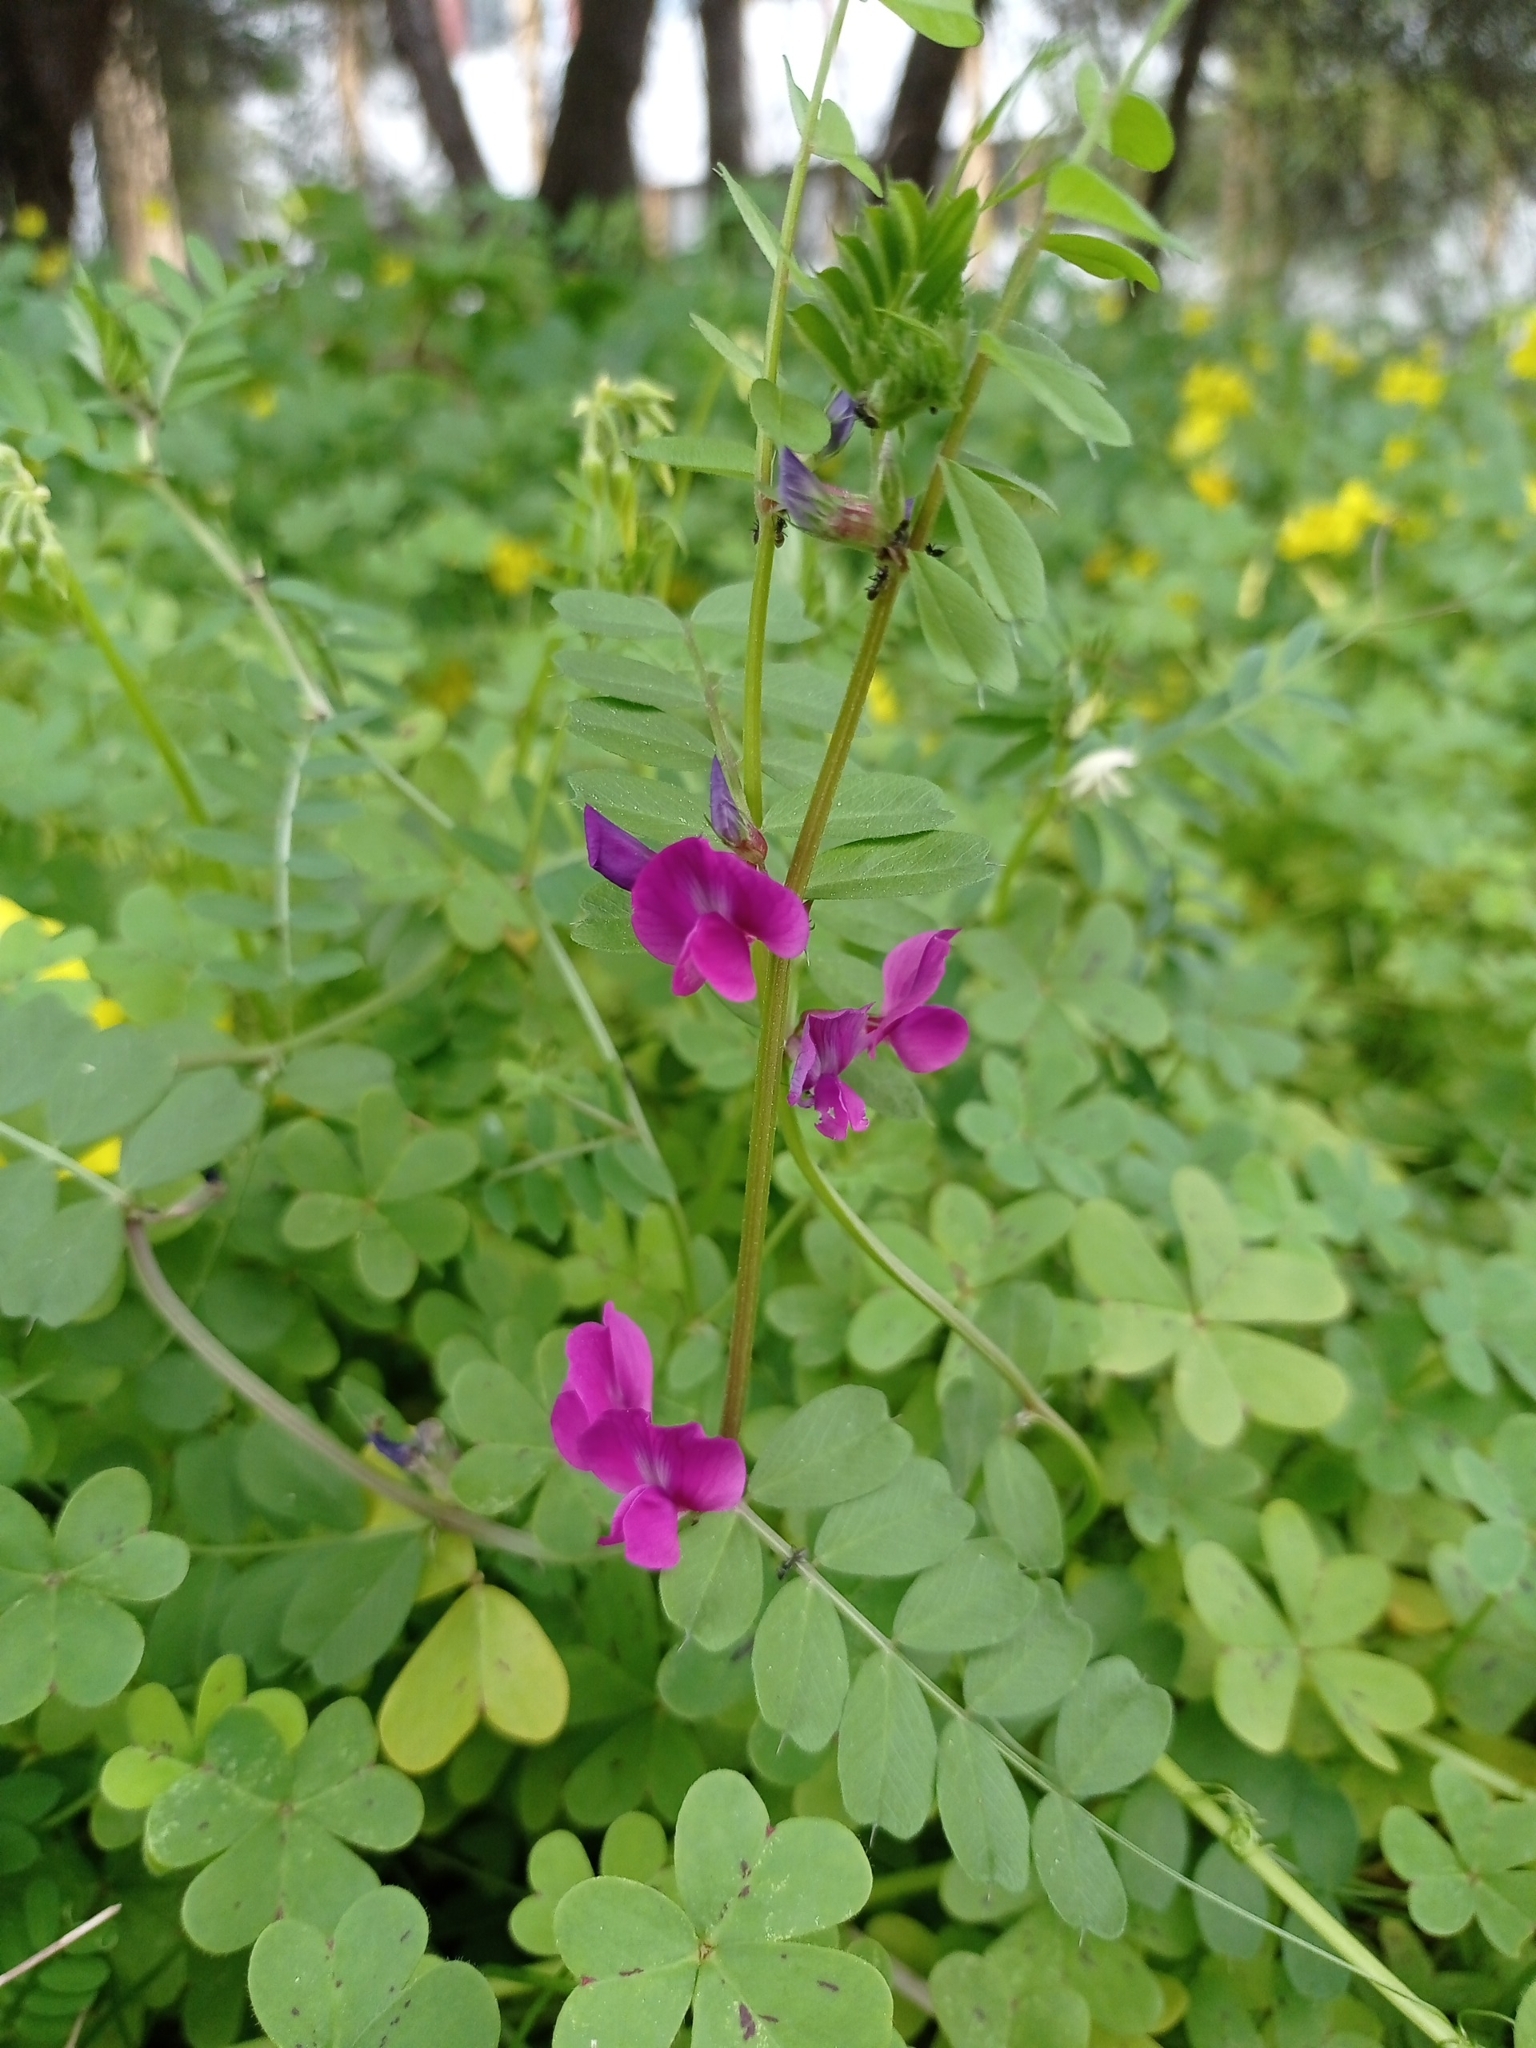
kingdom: Plantae
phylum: Tracheophyta
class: Magnoliopsida
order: Fabales
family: Fabaceae
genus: Vicia
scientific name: Vicia sativa
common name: Garden vetch
